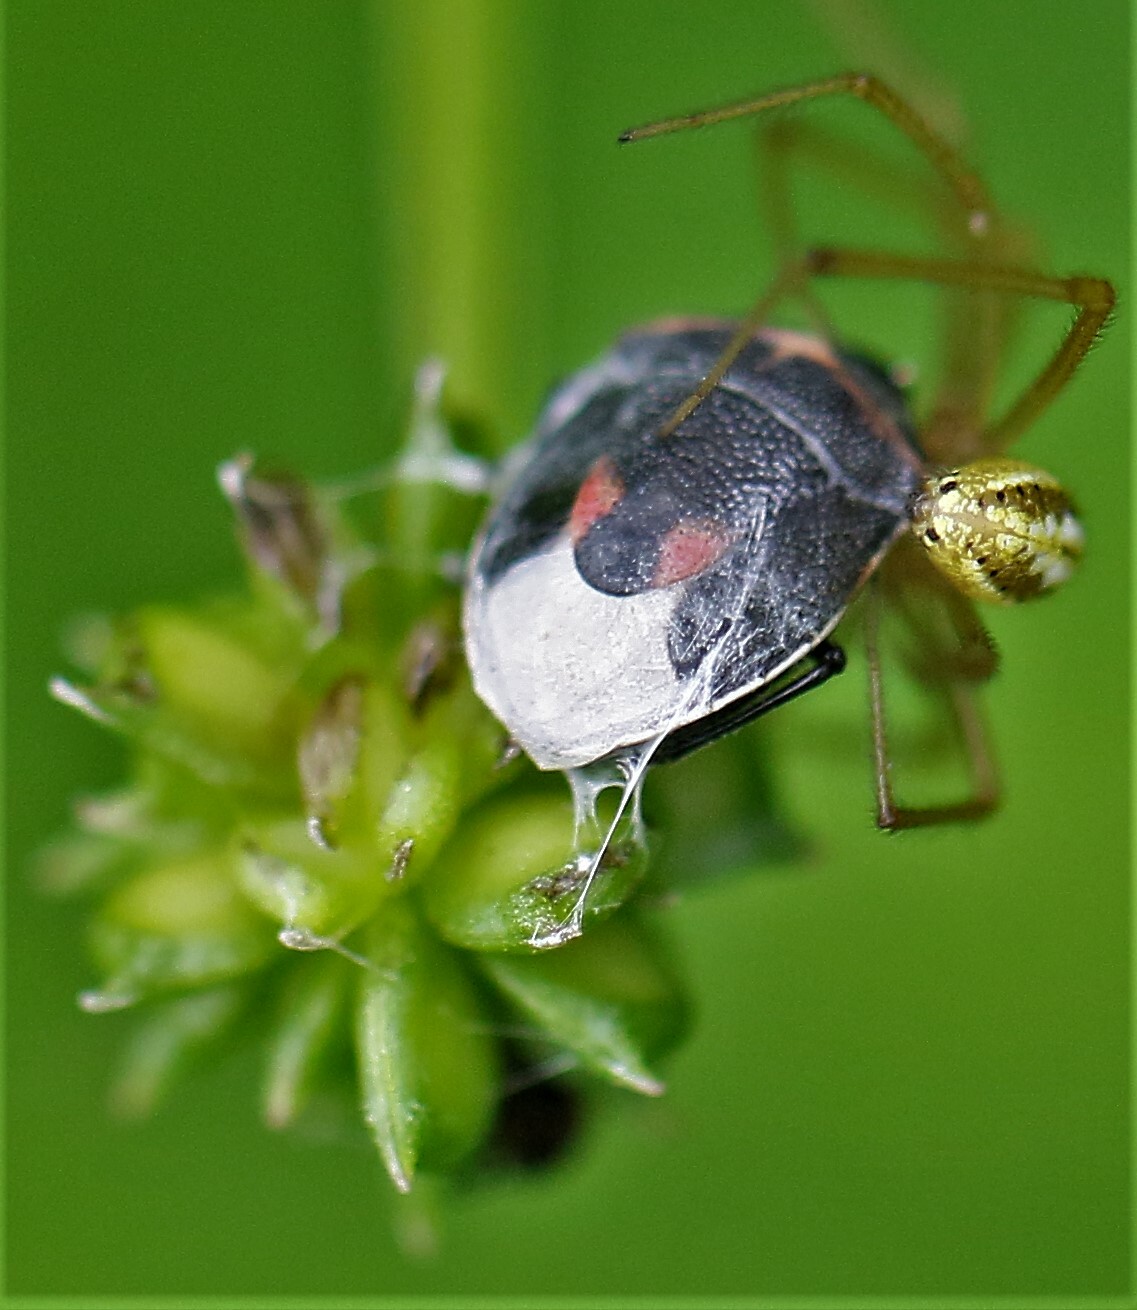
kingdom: Animalia
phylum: Arthropoda
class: Insecta
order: Hemiptera
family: Pentatomidae
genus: Cosmopepla
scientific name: Cosmopepla lintneriana
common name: Twice-stabbed stink bug
